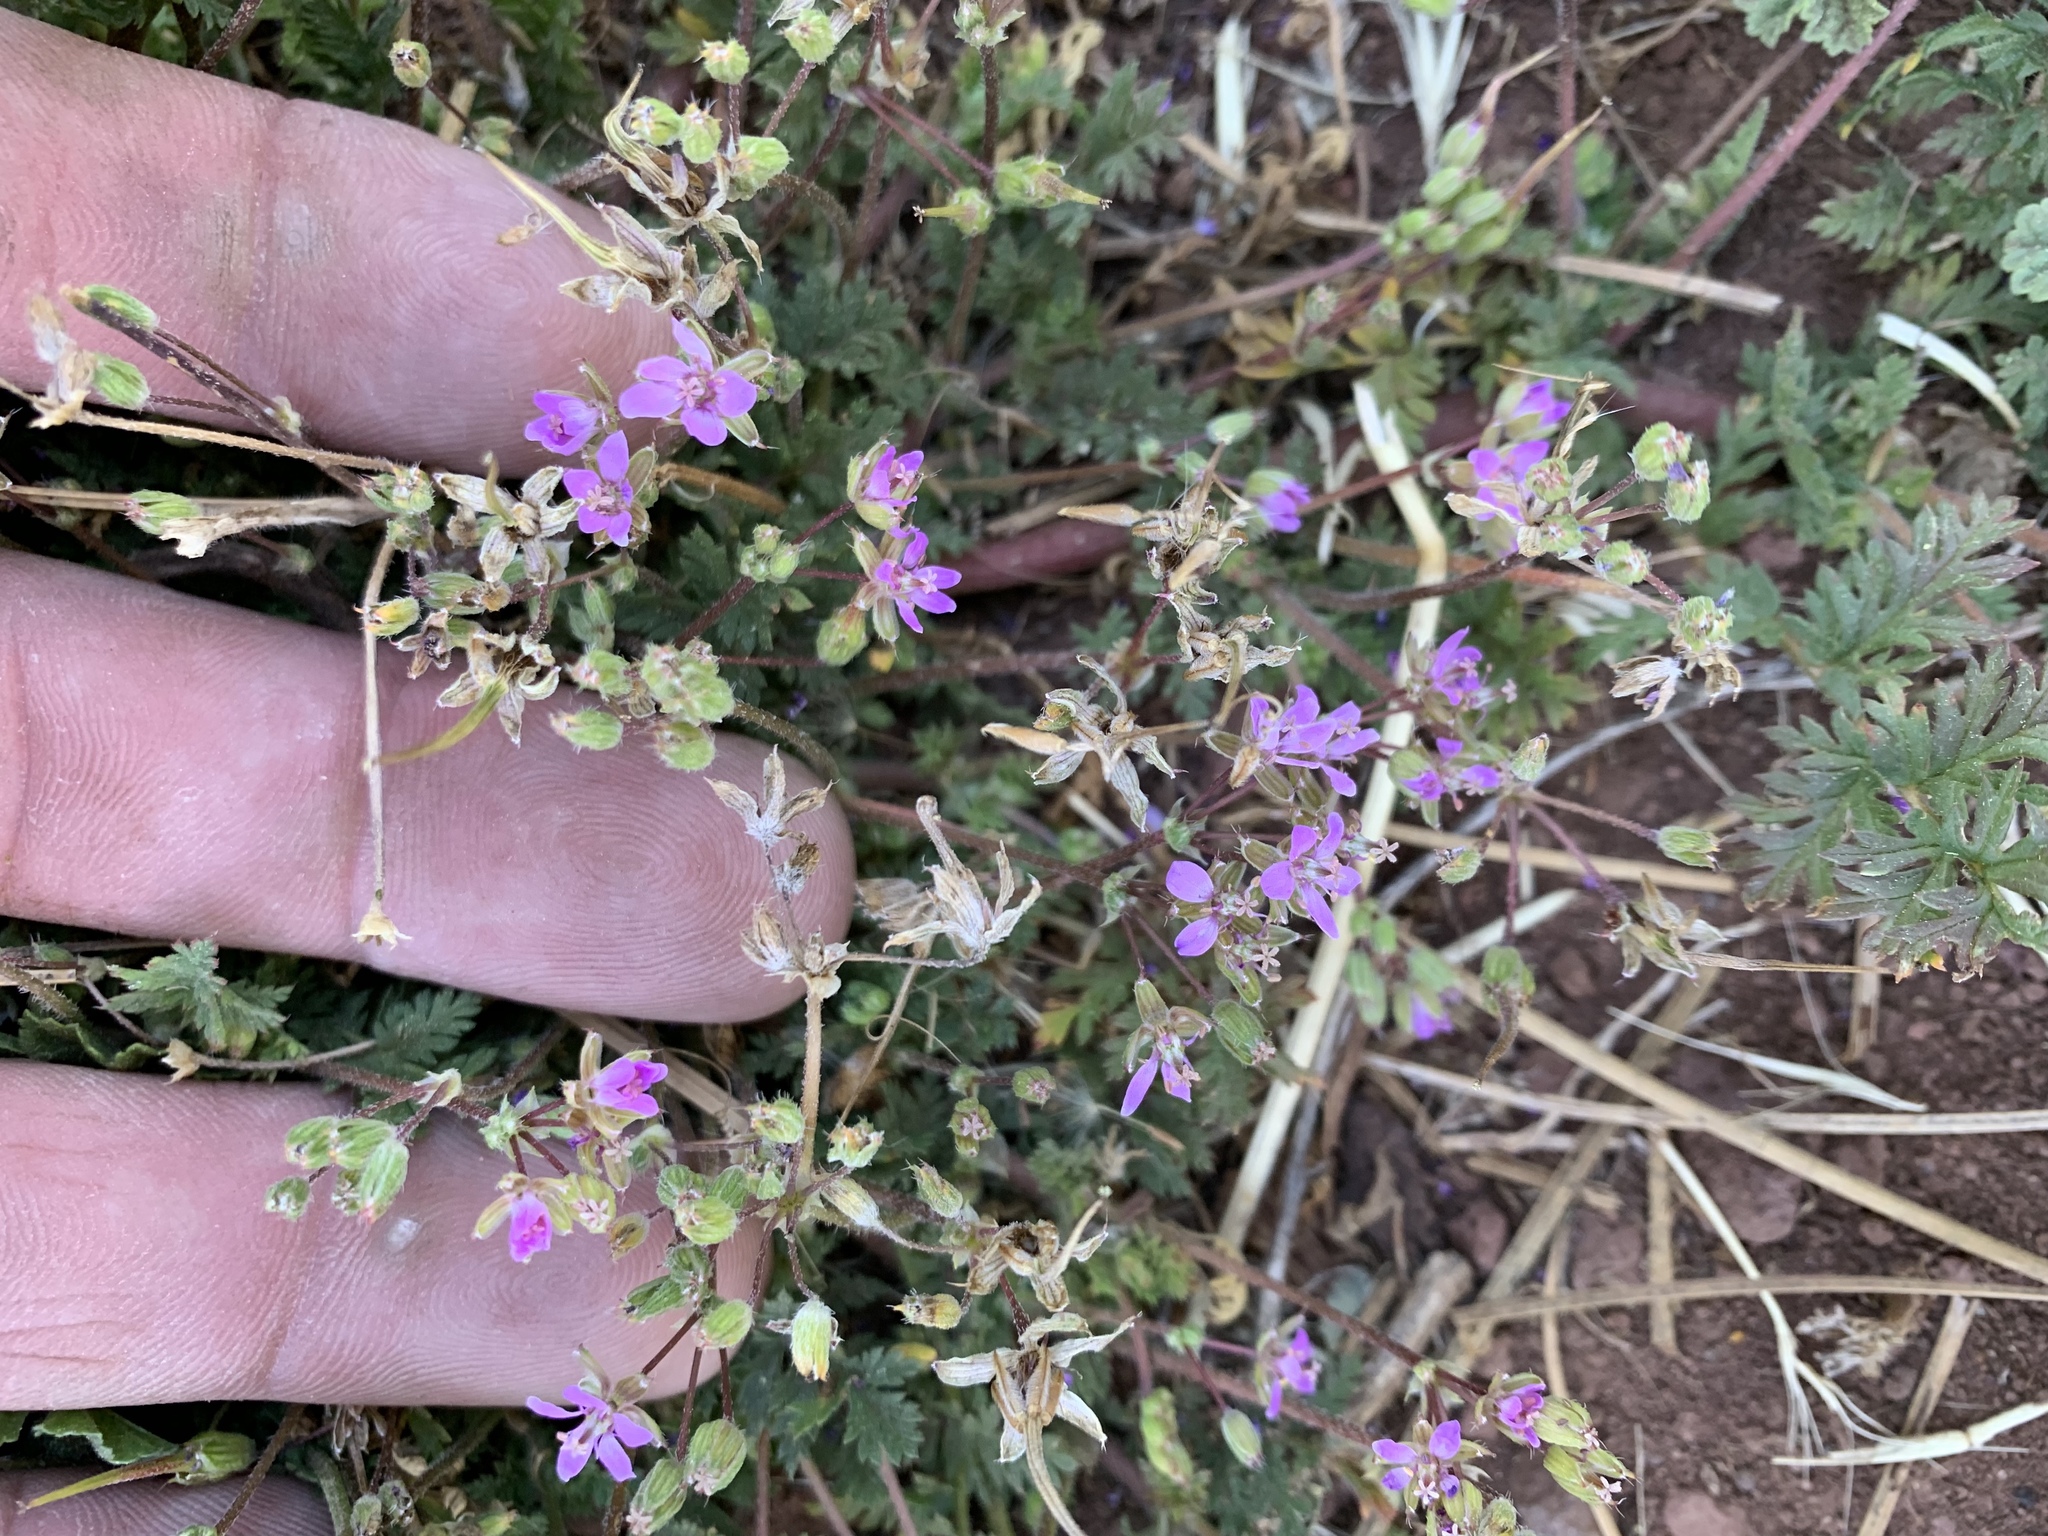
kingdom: Plantae
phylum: Tracheophyta
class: Magnoliopsida
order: Geraniales
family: Geraniaceae
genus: Erodium
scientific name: Erodium cicutarium
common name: Common stork's-bill
